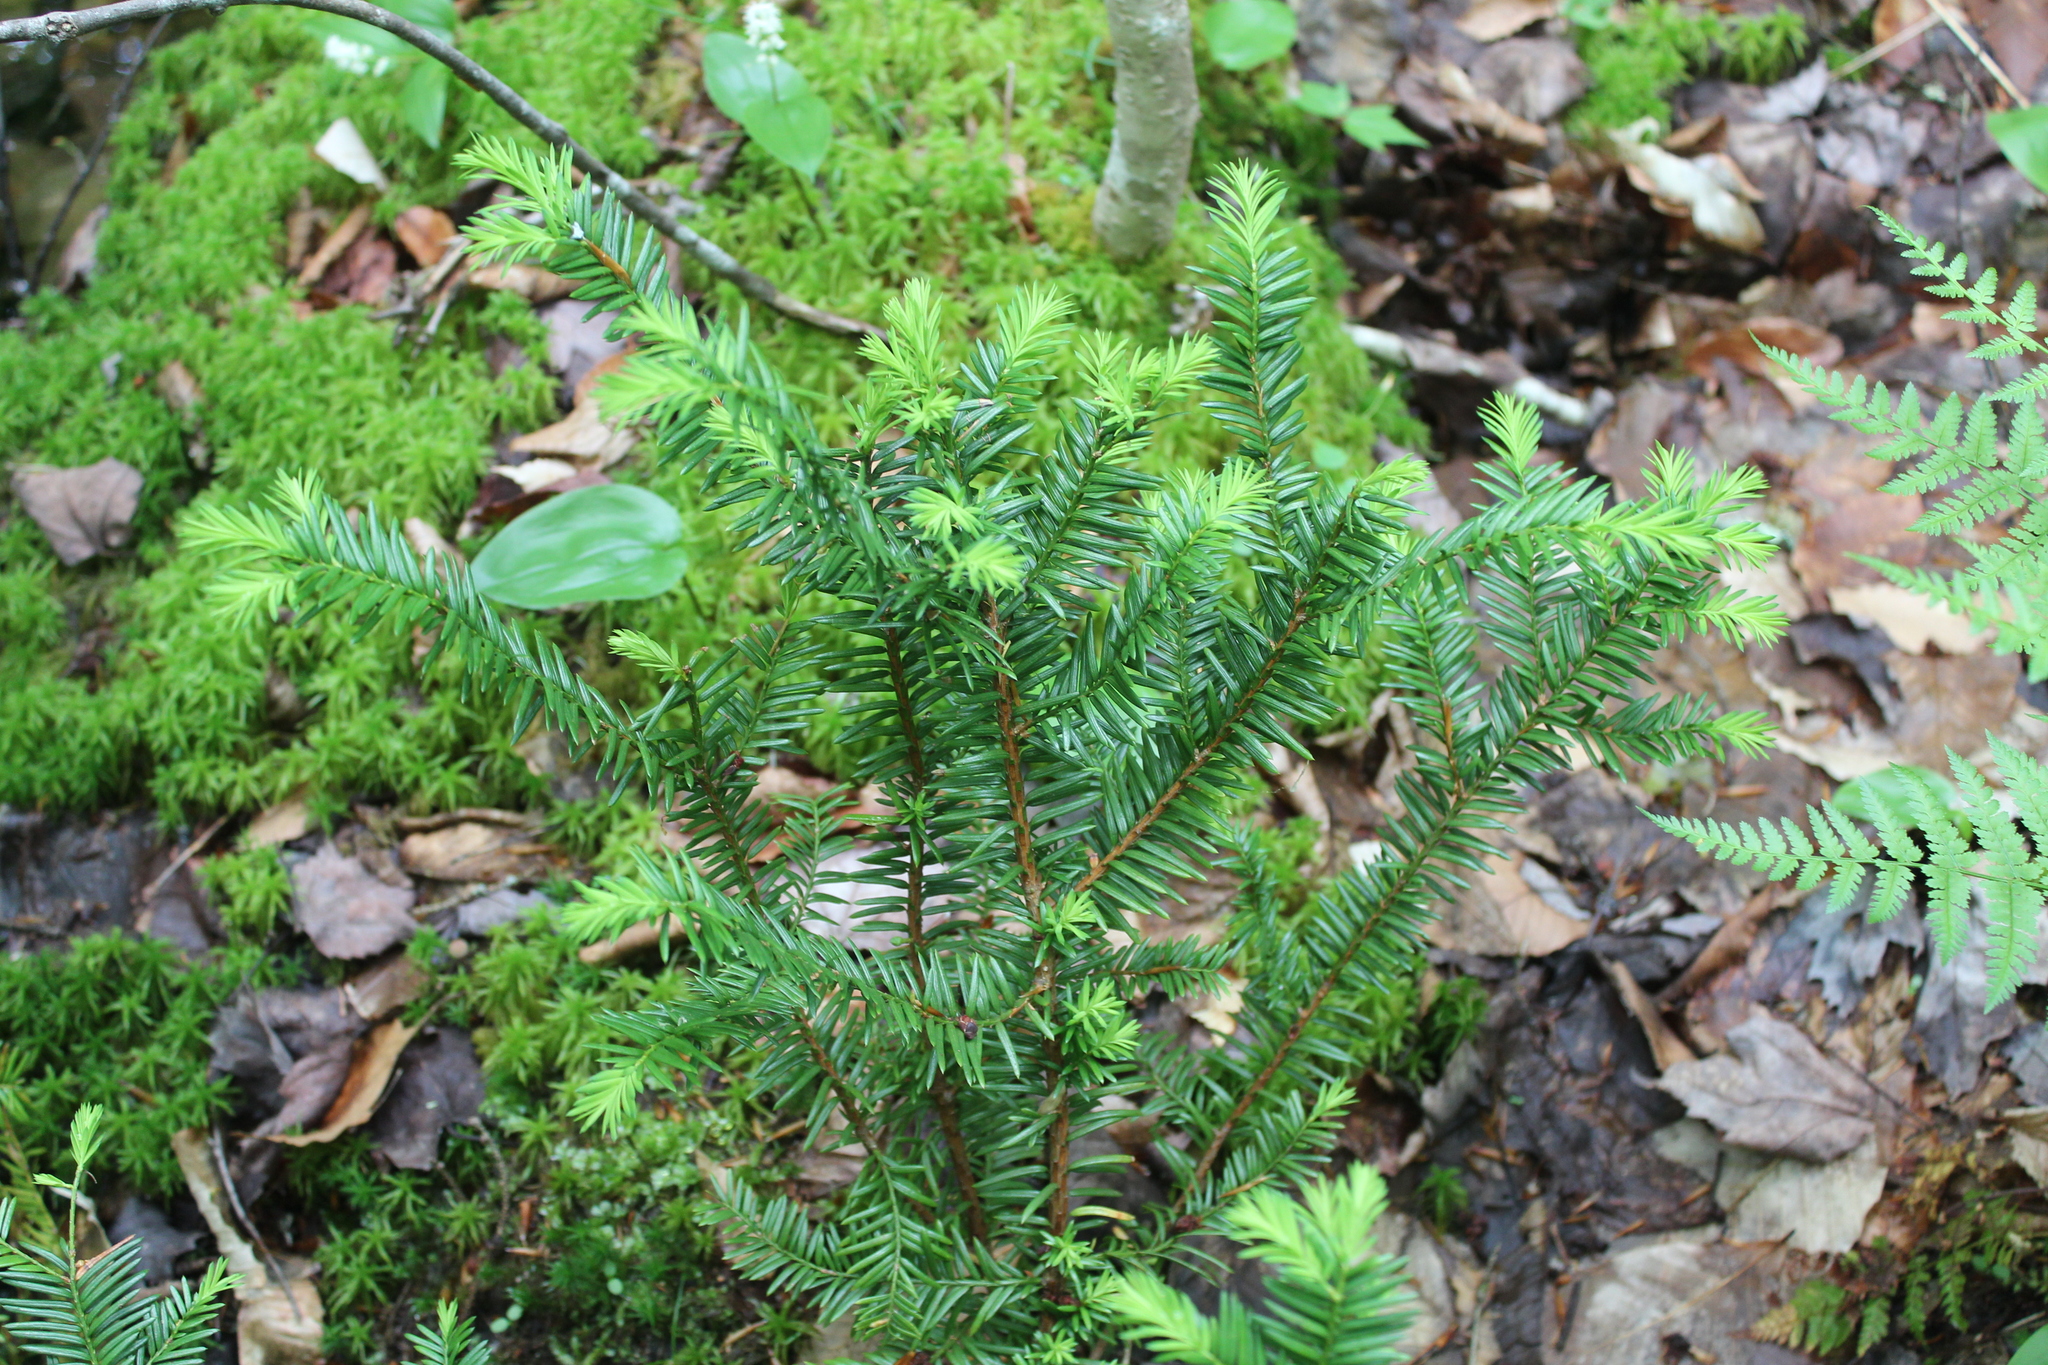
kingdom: Plantae
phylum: Tracheophyta
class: Pinopsida
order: Pinales
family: Taxaceae
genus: Taxus
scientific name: Taxus canadensis
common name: American yew
